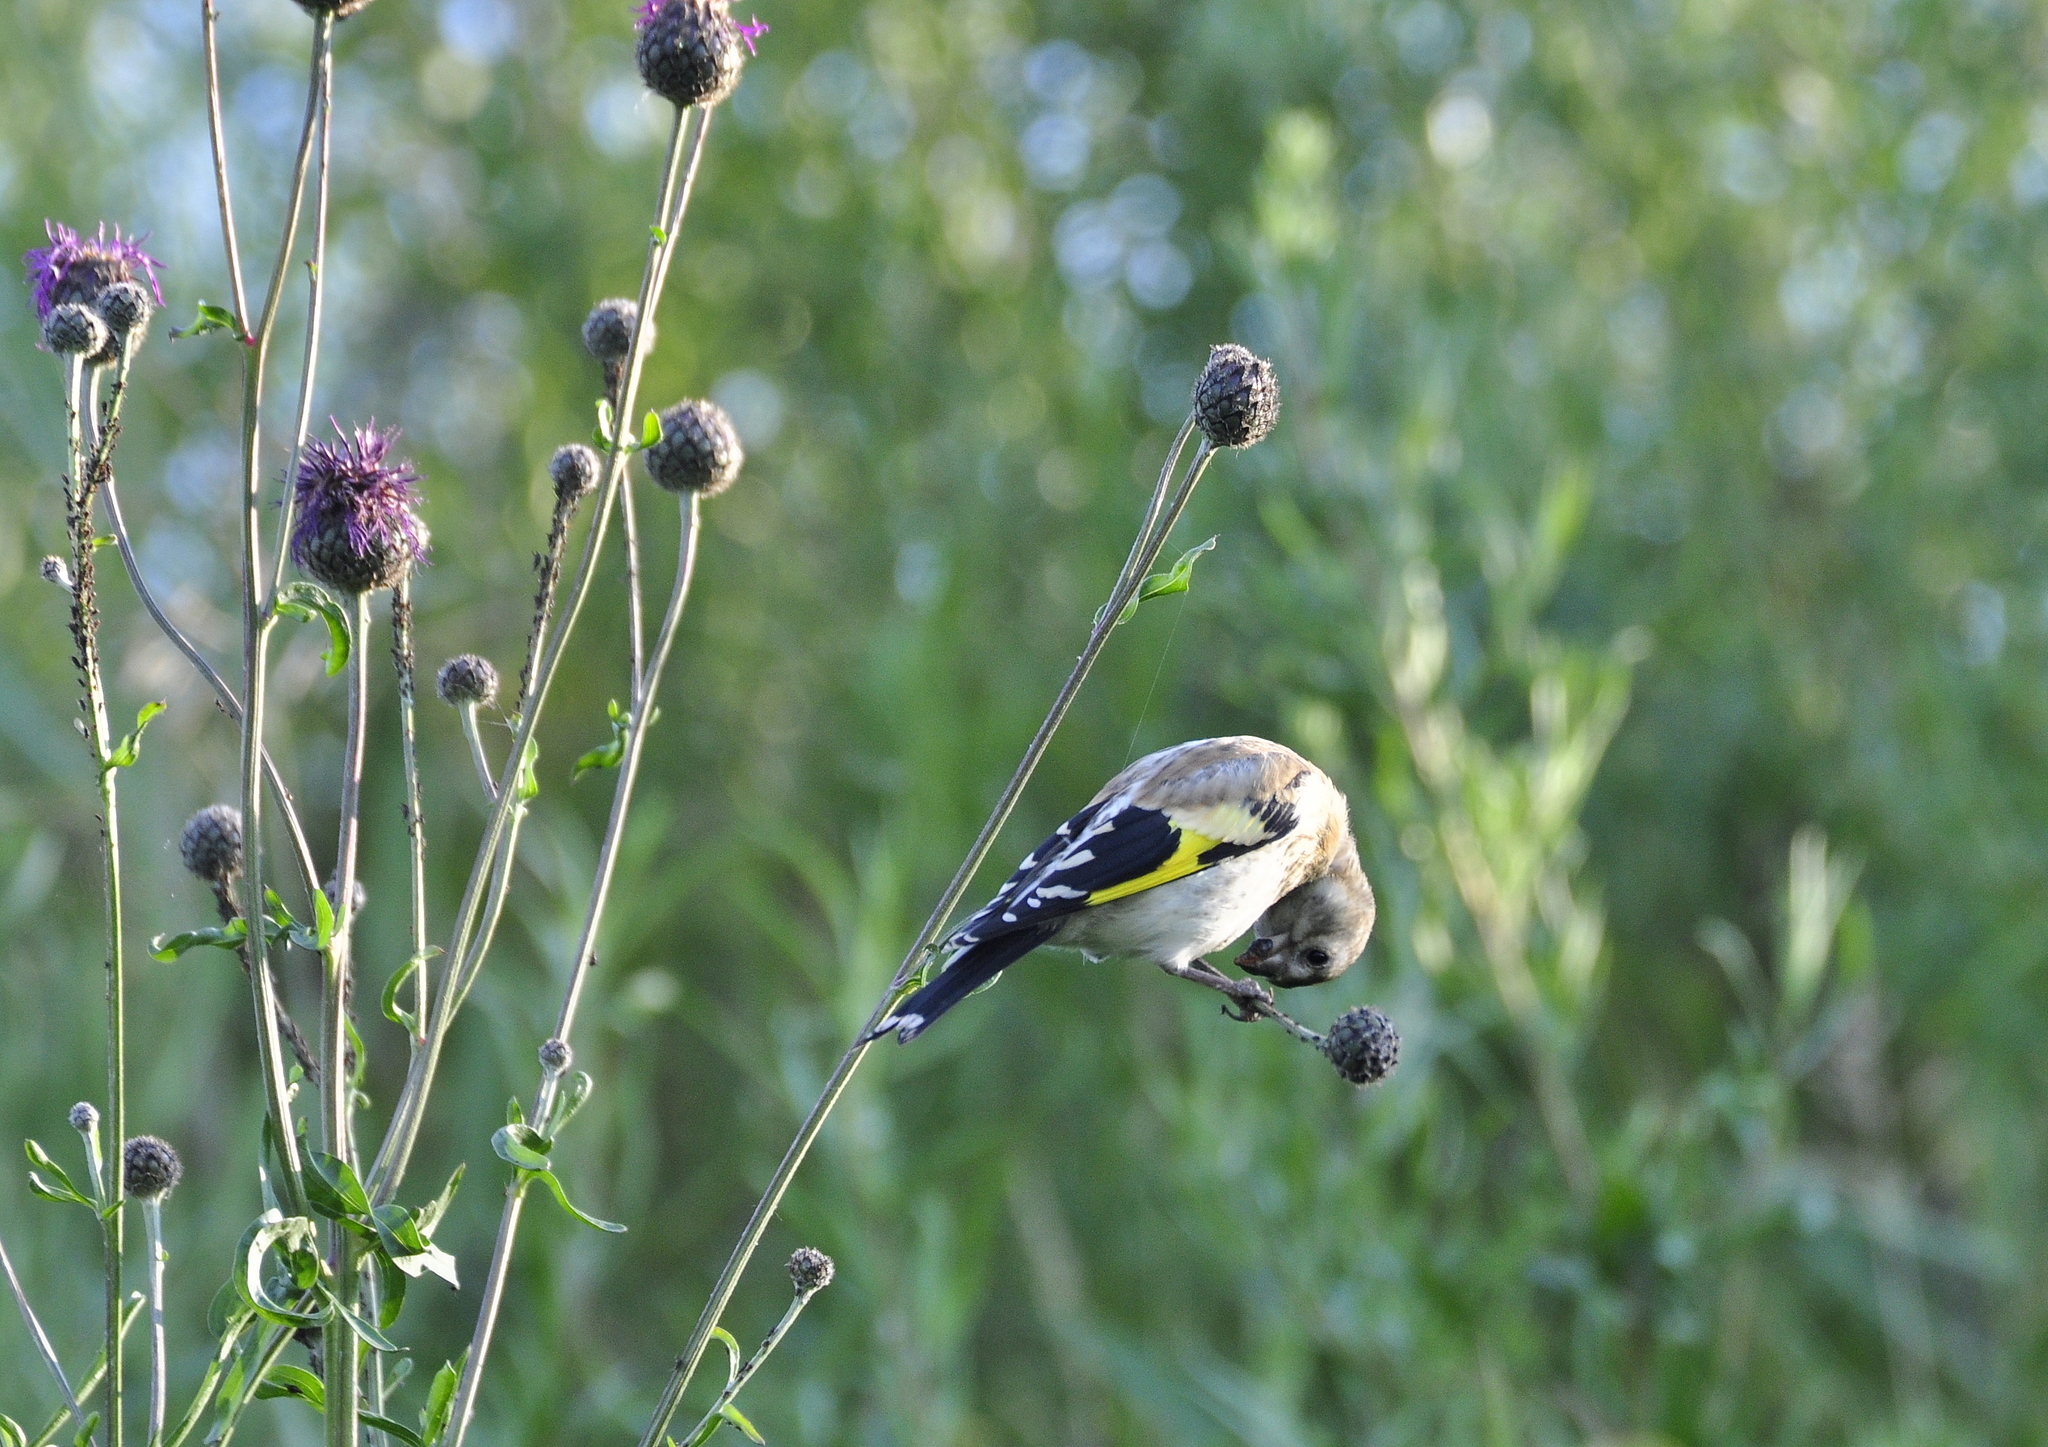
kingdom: Animalia
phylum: Chordata
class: Aves
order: Passeriformes
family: Fringillidae
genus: Carduelis
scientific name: Carduelis carduelis
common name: European goldfinch
